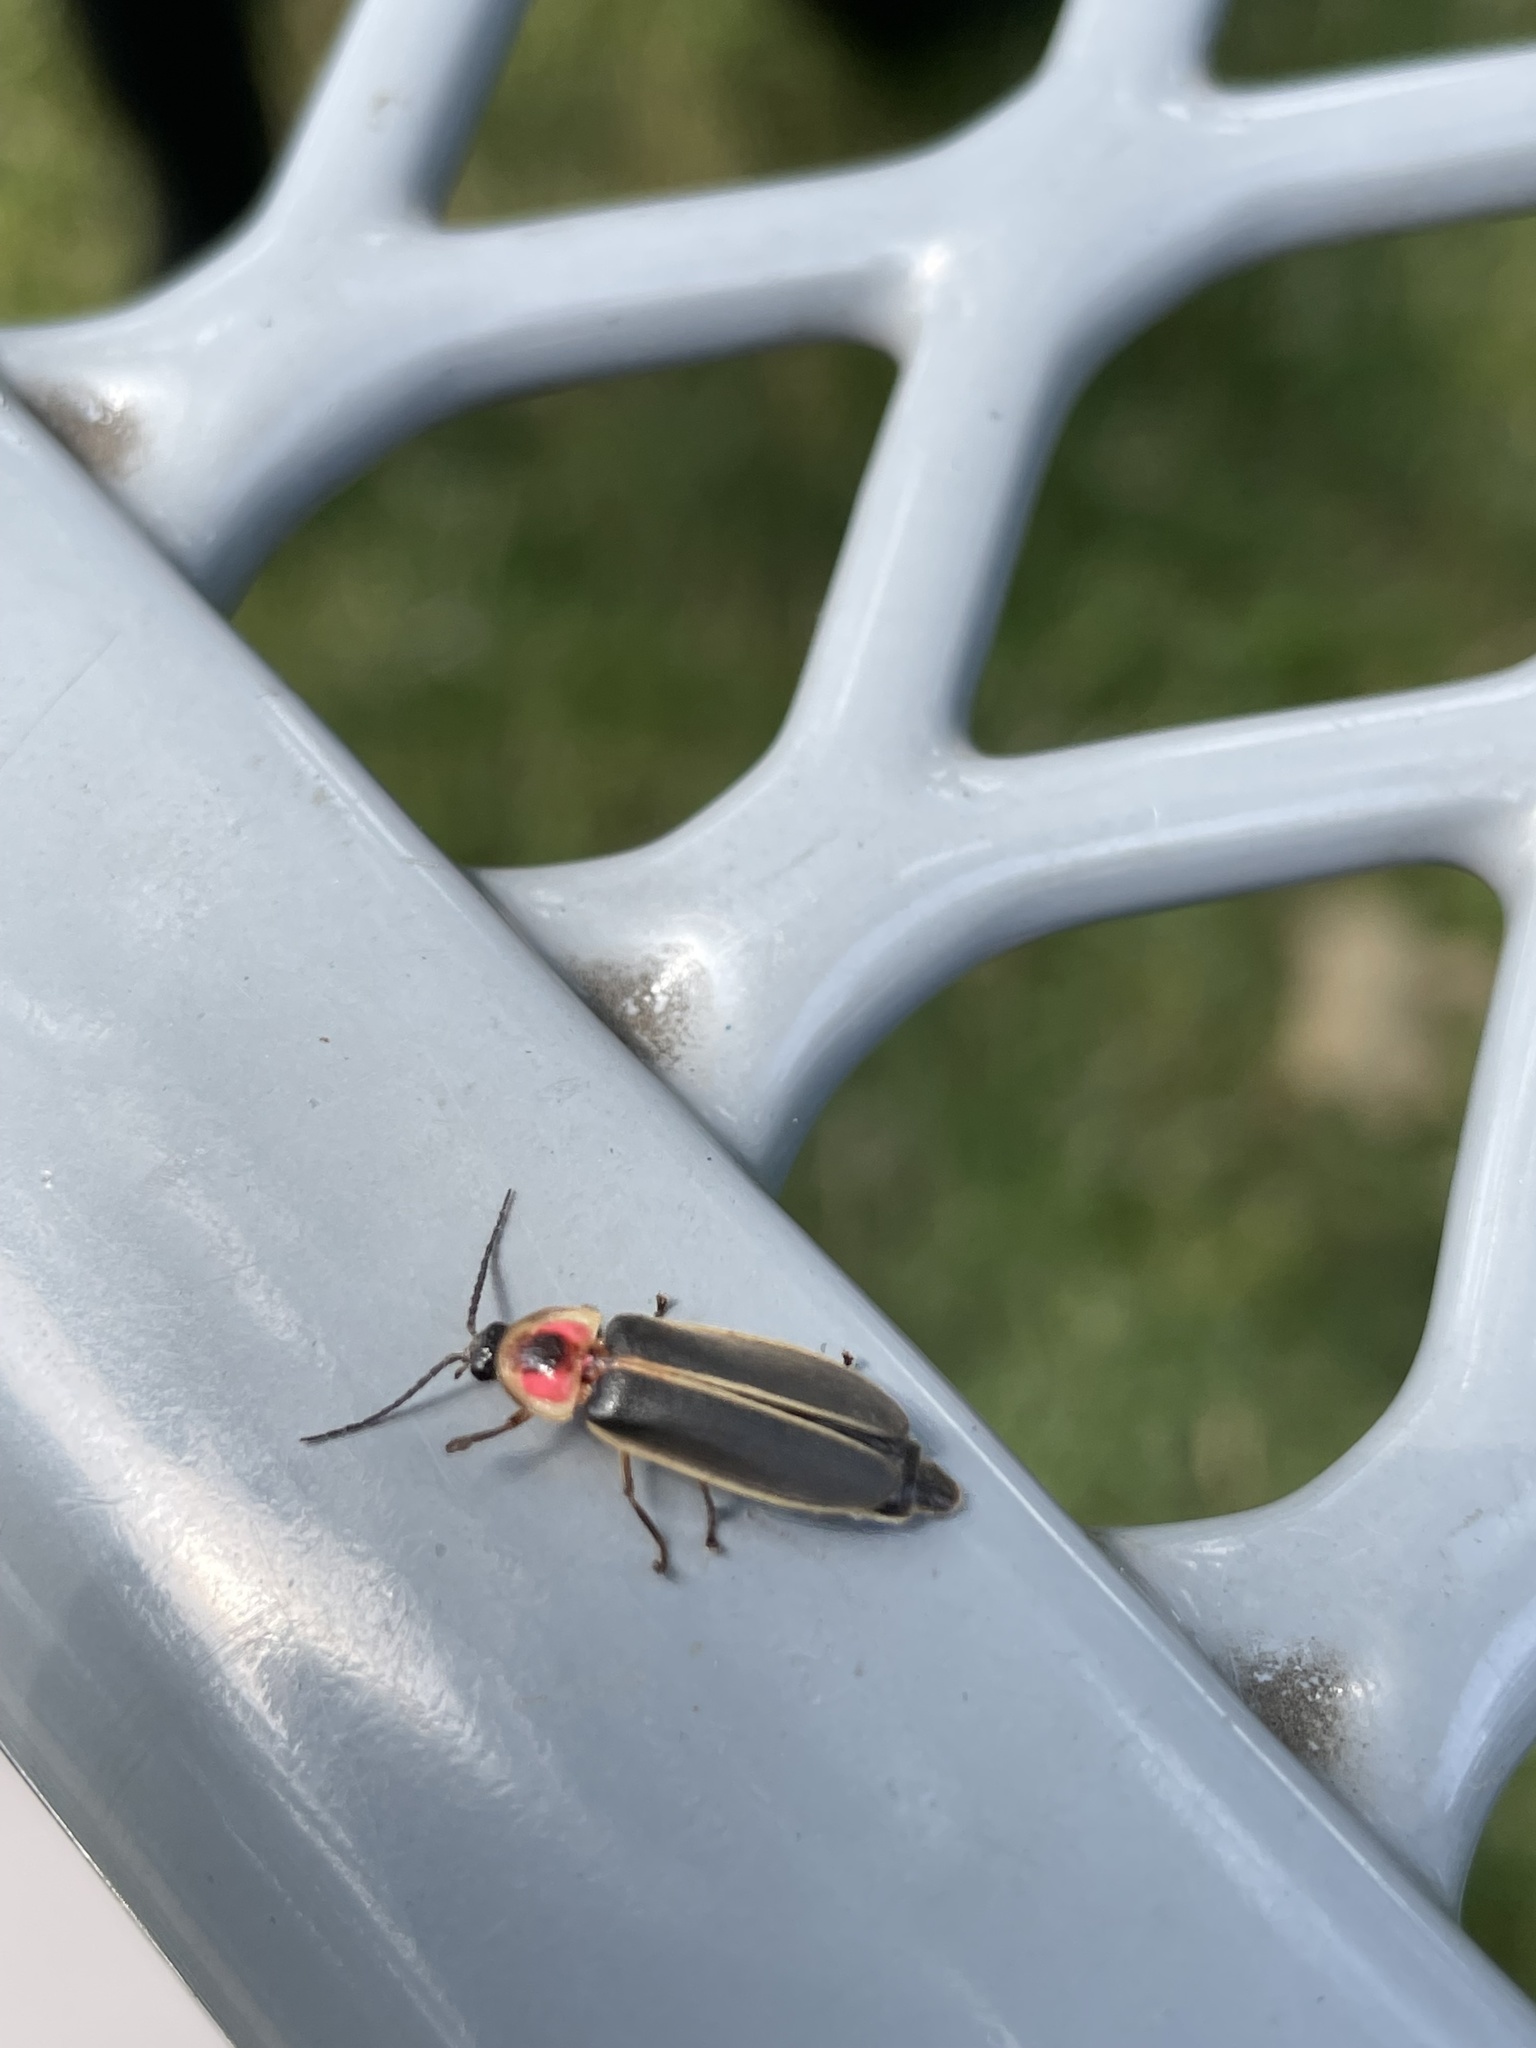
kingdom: Animalia
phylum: Arthropoda
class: Insecta
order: Coleoptera
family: Lampyridae
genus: Photinus
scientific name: Photinus pyralis
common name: Big dipper firefly
